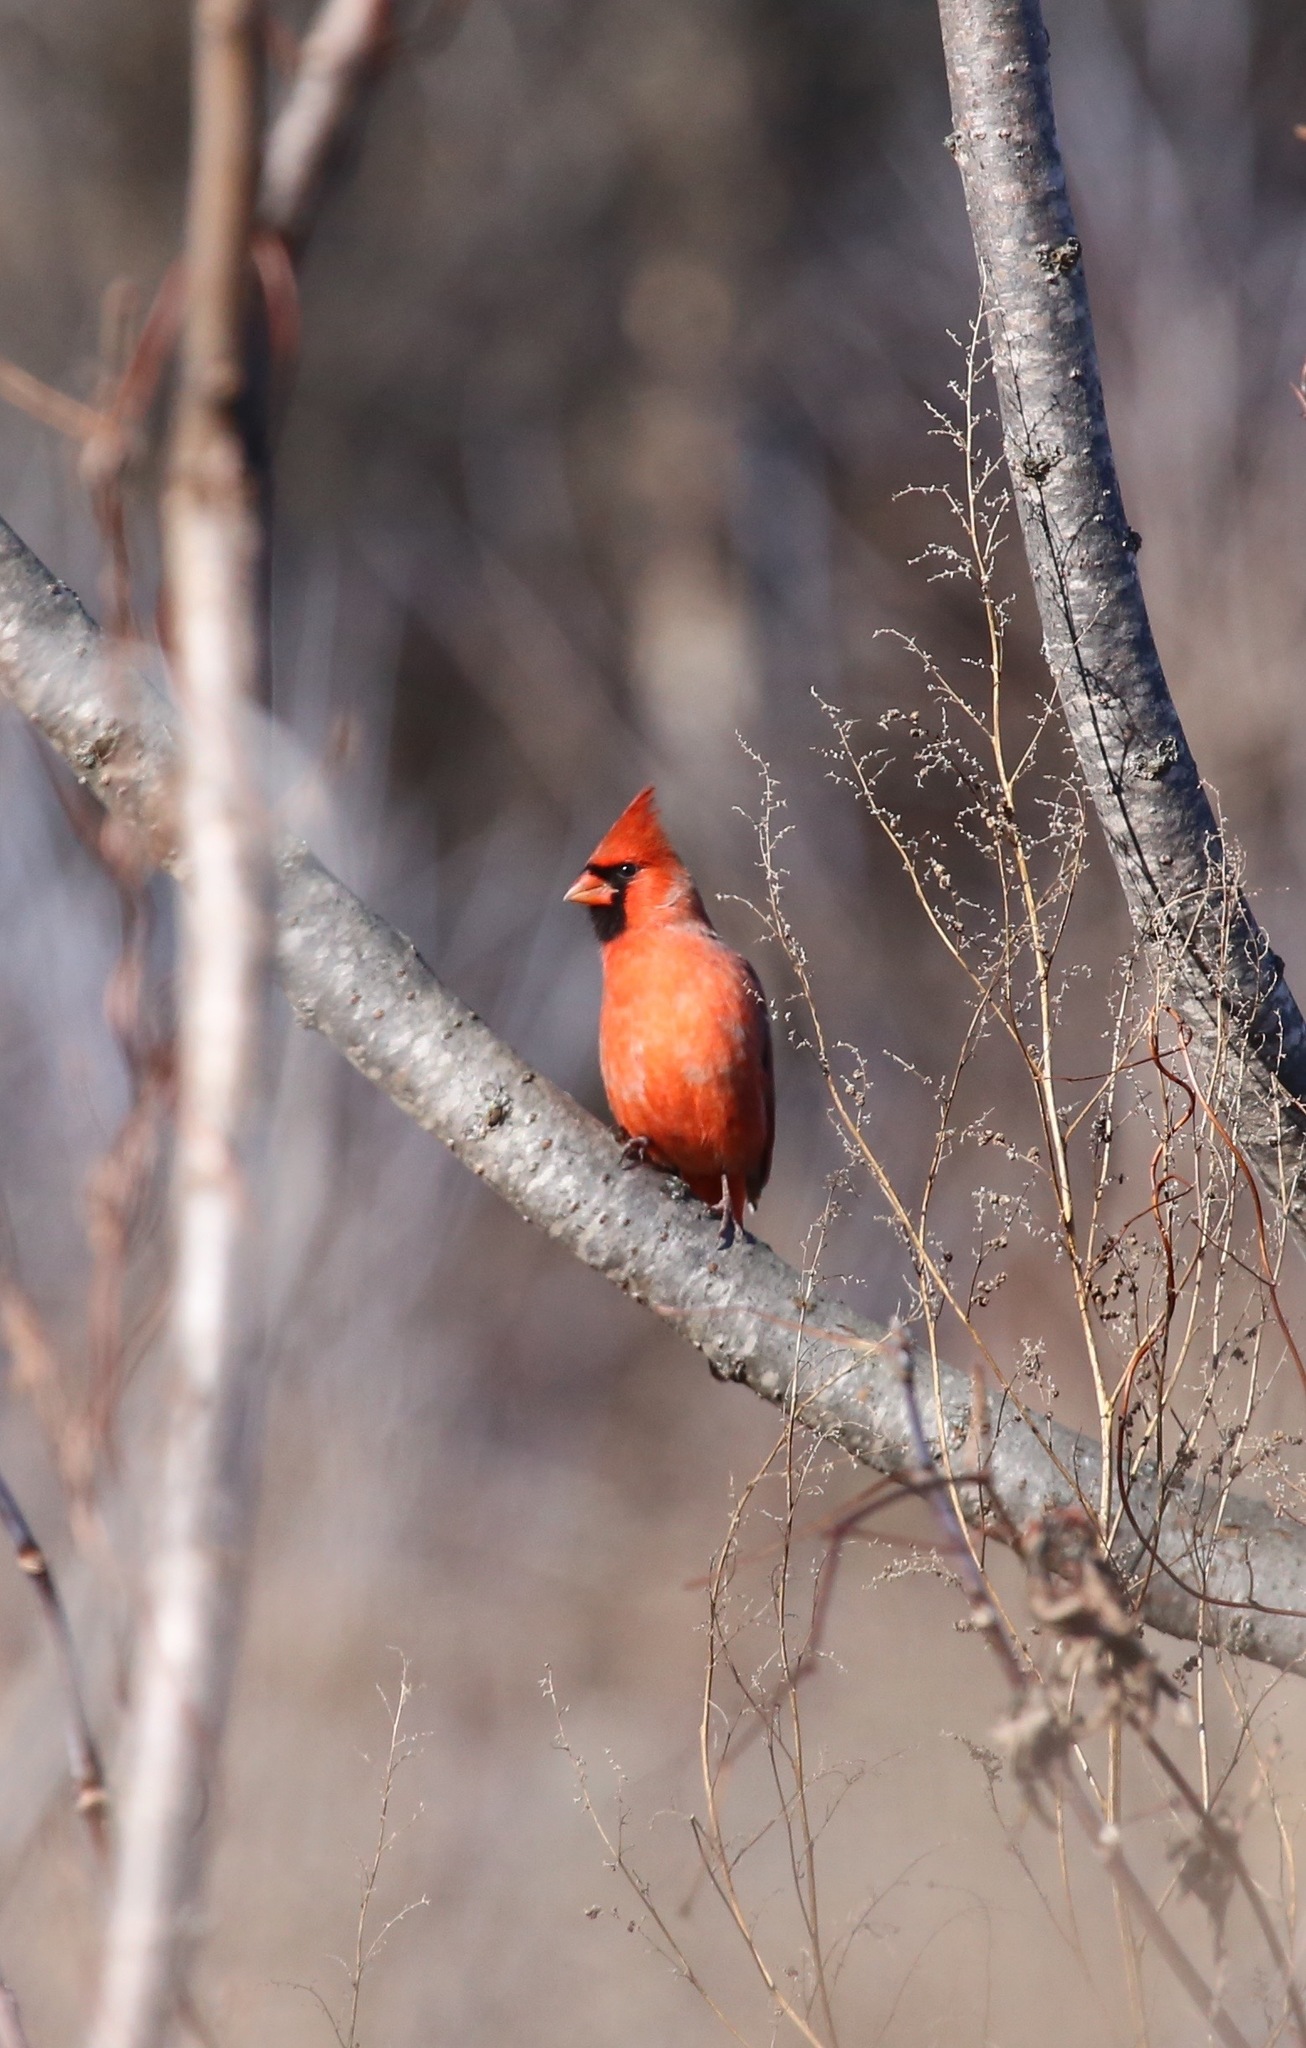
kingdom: Animalia
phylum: Chordata
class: Aves
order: Passeriformes
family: Cardinalidae
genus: Cardinalis
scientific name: Cardinalis cardinalis
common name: Northern cardinal
